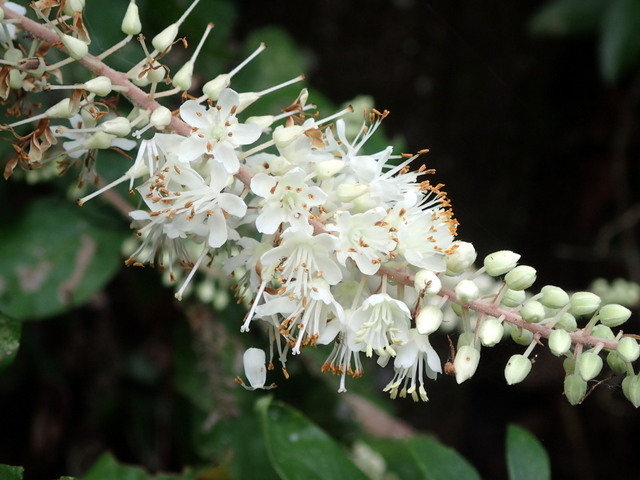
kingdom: Plantae
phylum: Tracheophyta
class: Magnoliopsida
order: Ericales
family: Clethraceae
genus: Clethra
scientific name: Clethra alnifolia
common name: Sweet pepperbush
